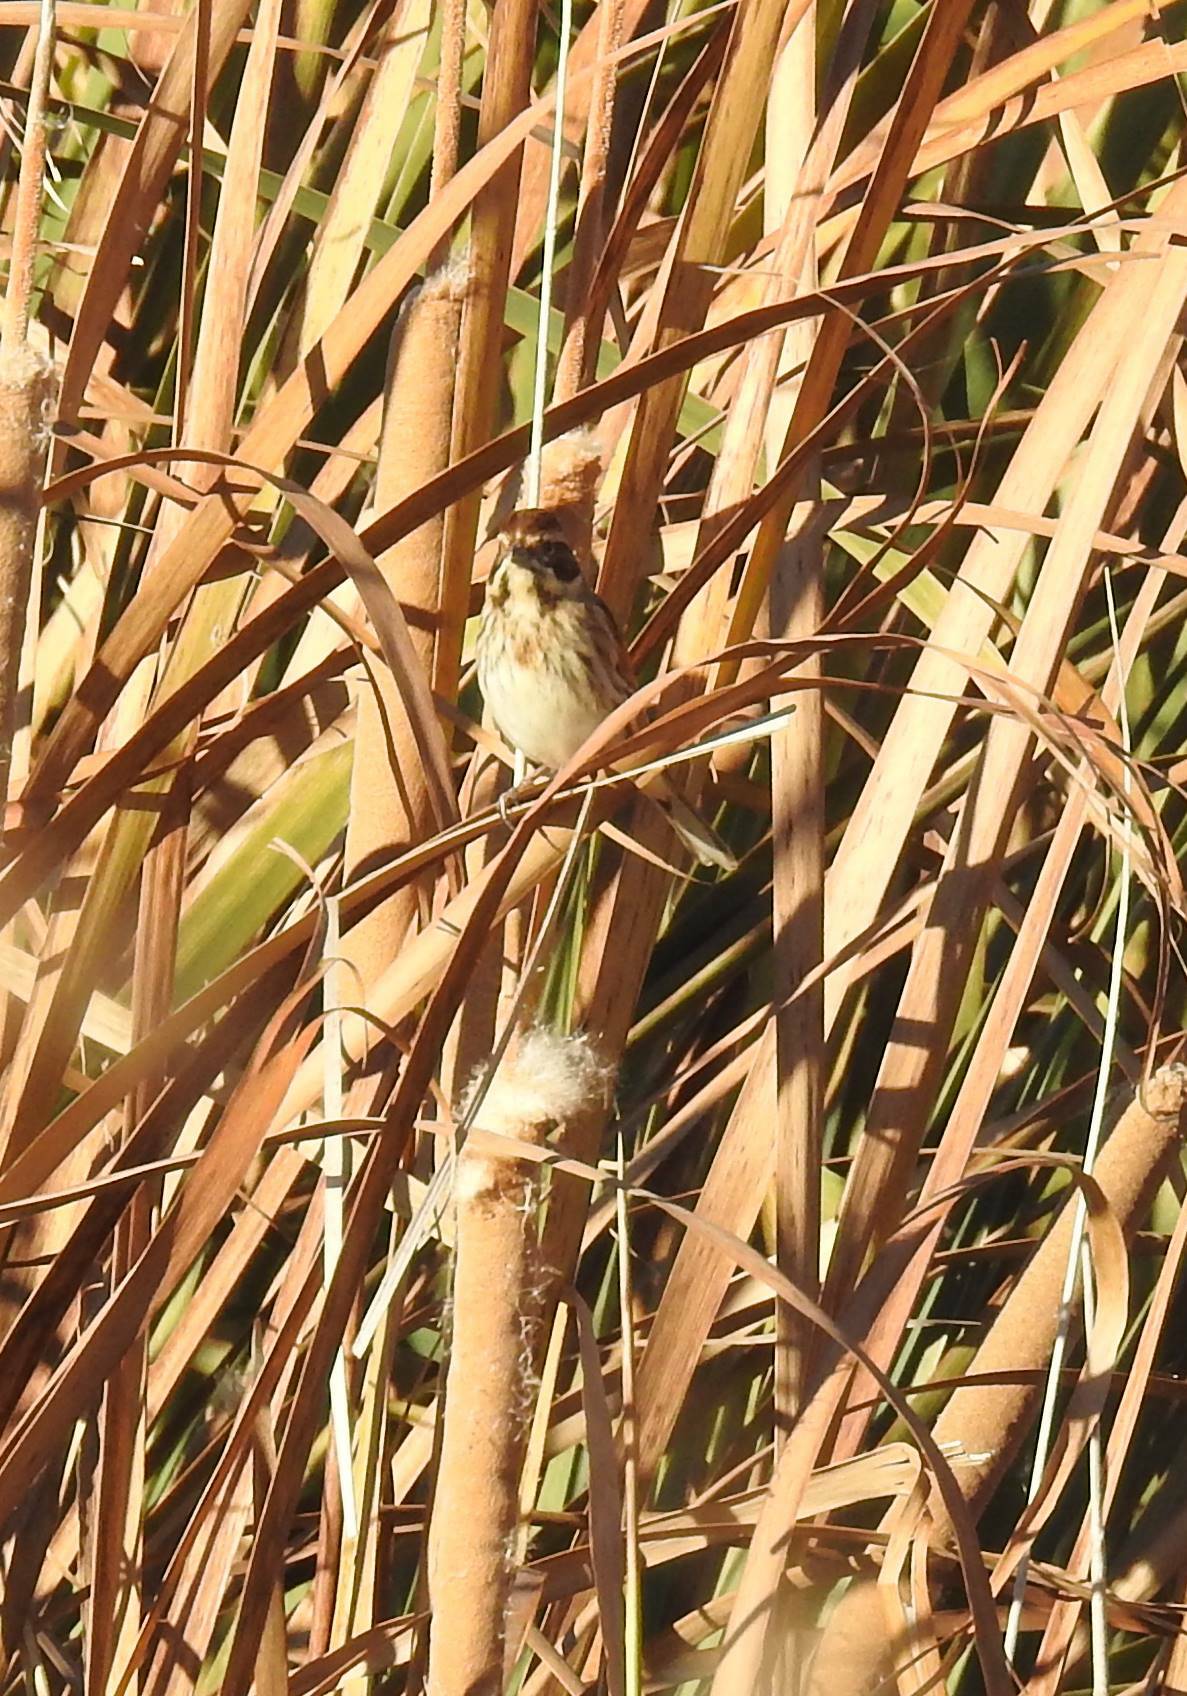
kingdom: Animalia
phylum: Chordata
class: Aves
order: Passeriformes
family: Emberizidae
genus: Emberiza
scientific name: Emberiza schoeniclus
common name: Reed bunting
